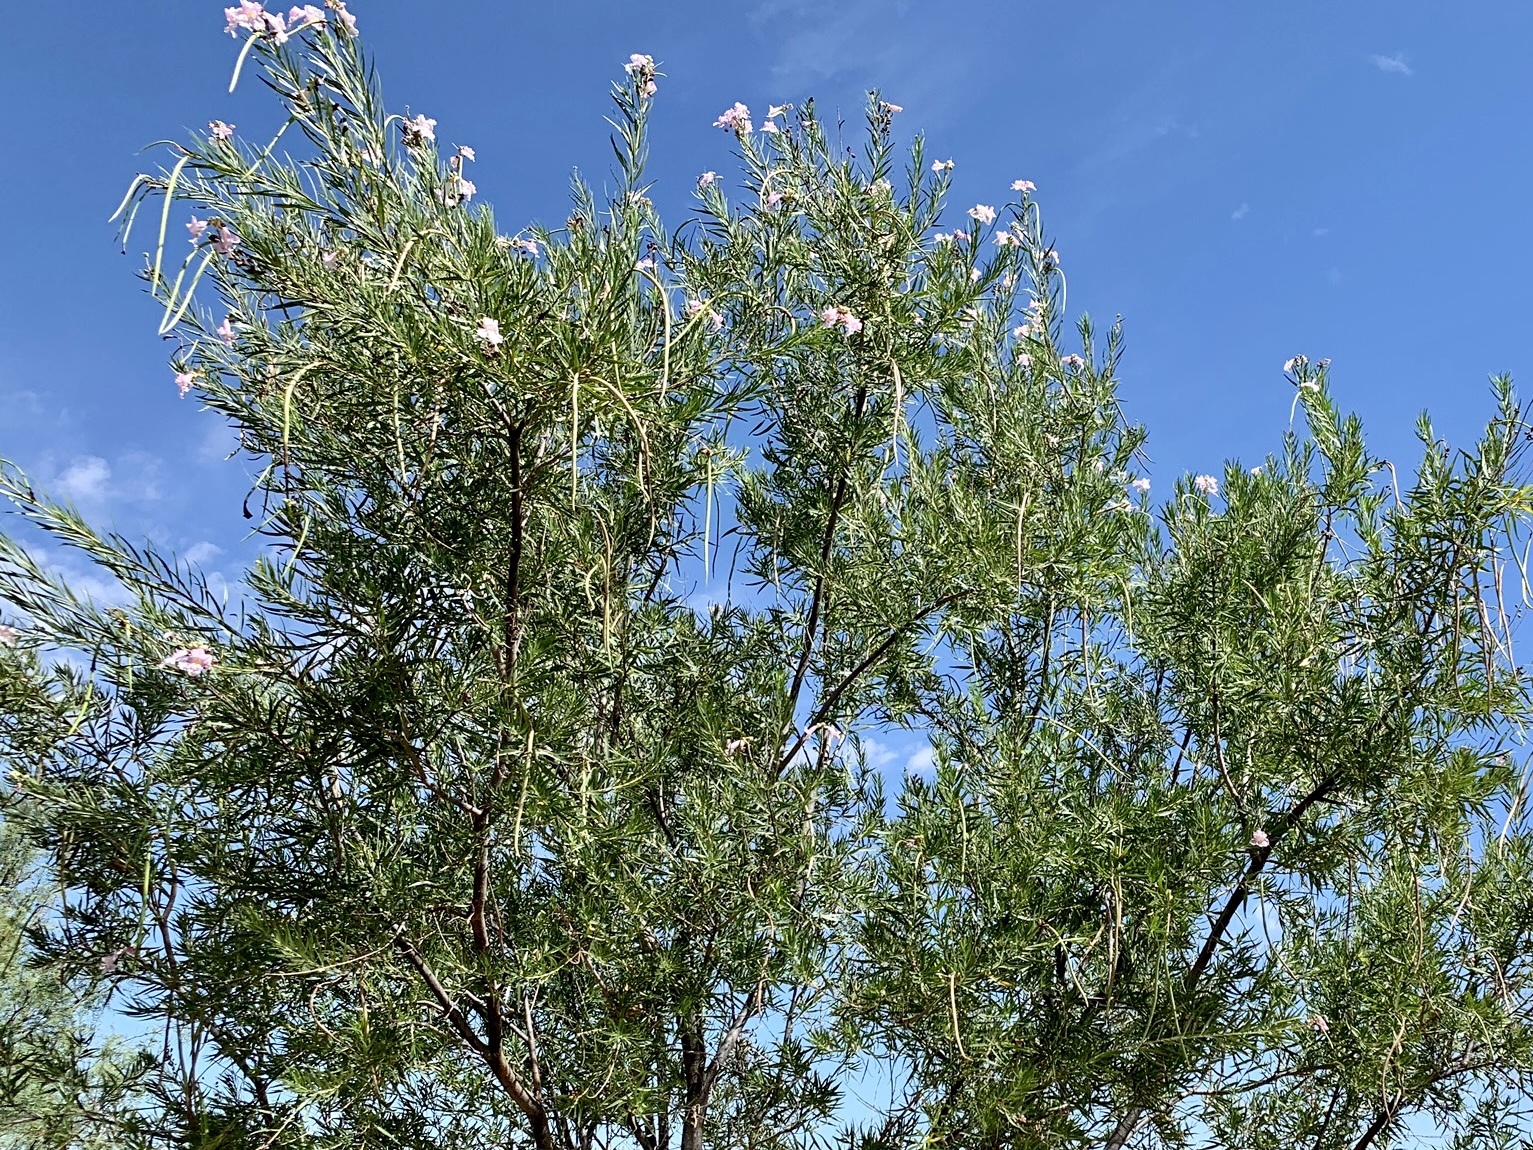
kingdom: Plantae
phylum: Tracheophyta
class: Magnoliopsida
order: Lamiales
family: Bignoniaceae
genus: Chilopsis
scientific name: Chilopsis linearis
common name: Desert-willow
